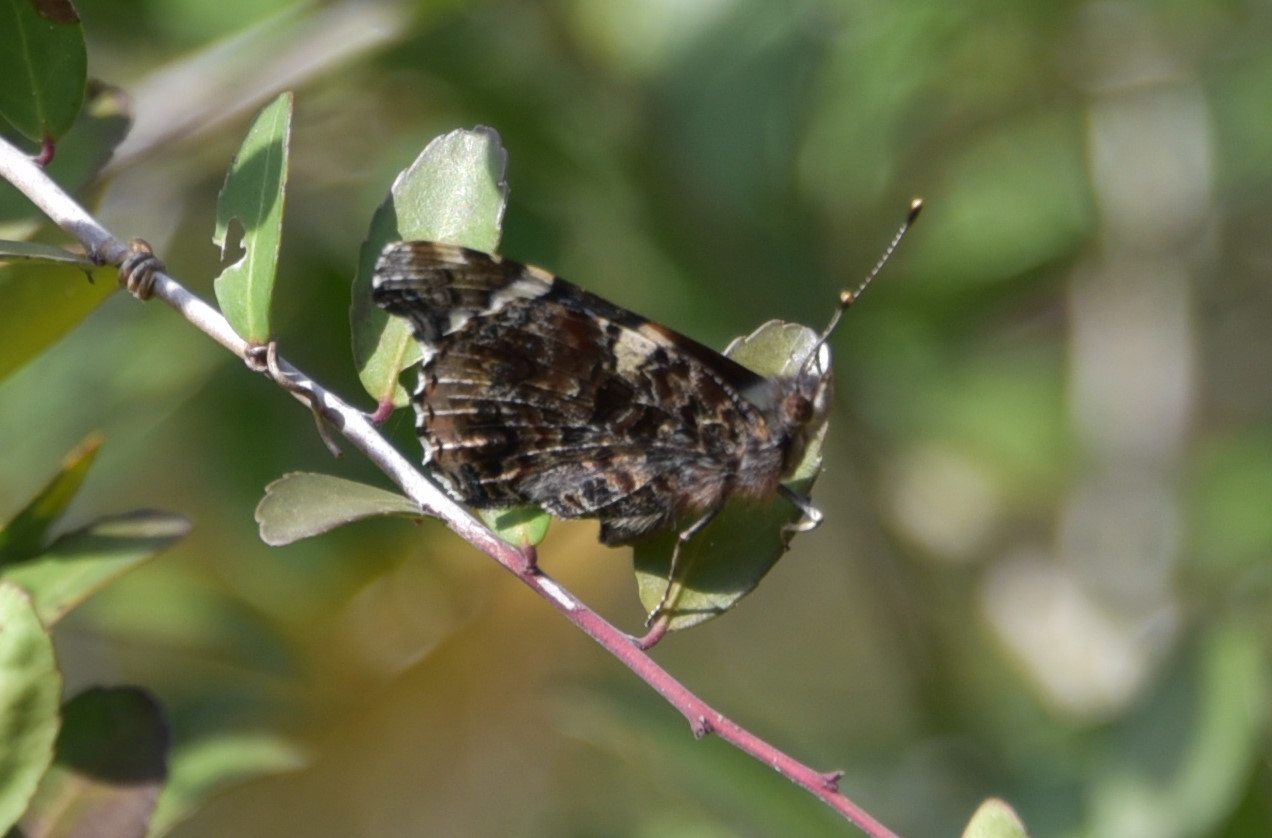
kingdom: Animalia
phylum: Arthropoda
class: Insecta
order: Lepidoptera
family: Nymphalidae
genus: Vanessa
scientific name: Vanessa atalanta
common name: Red admiral
